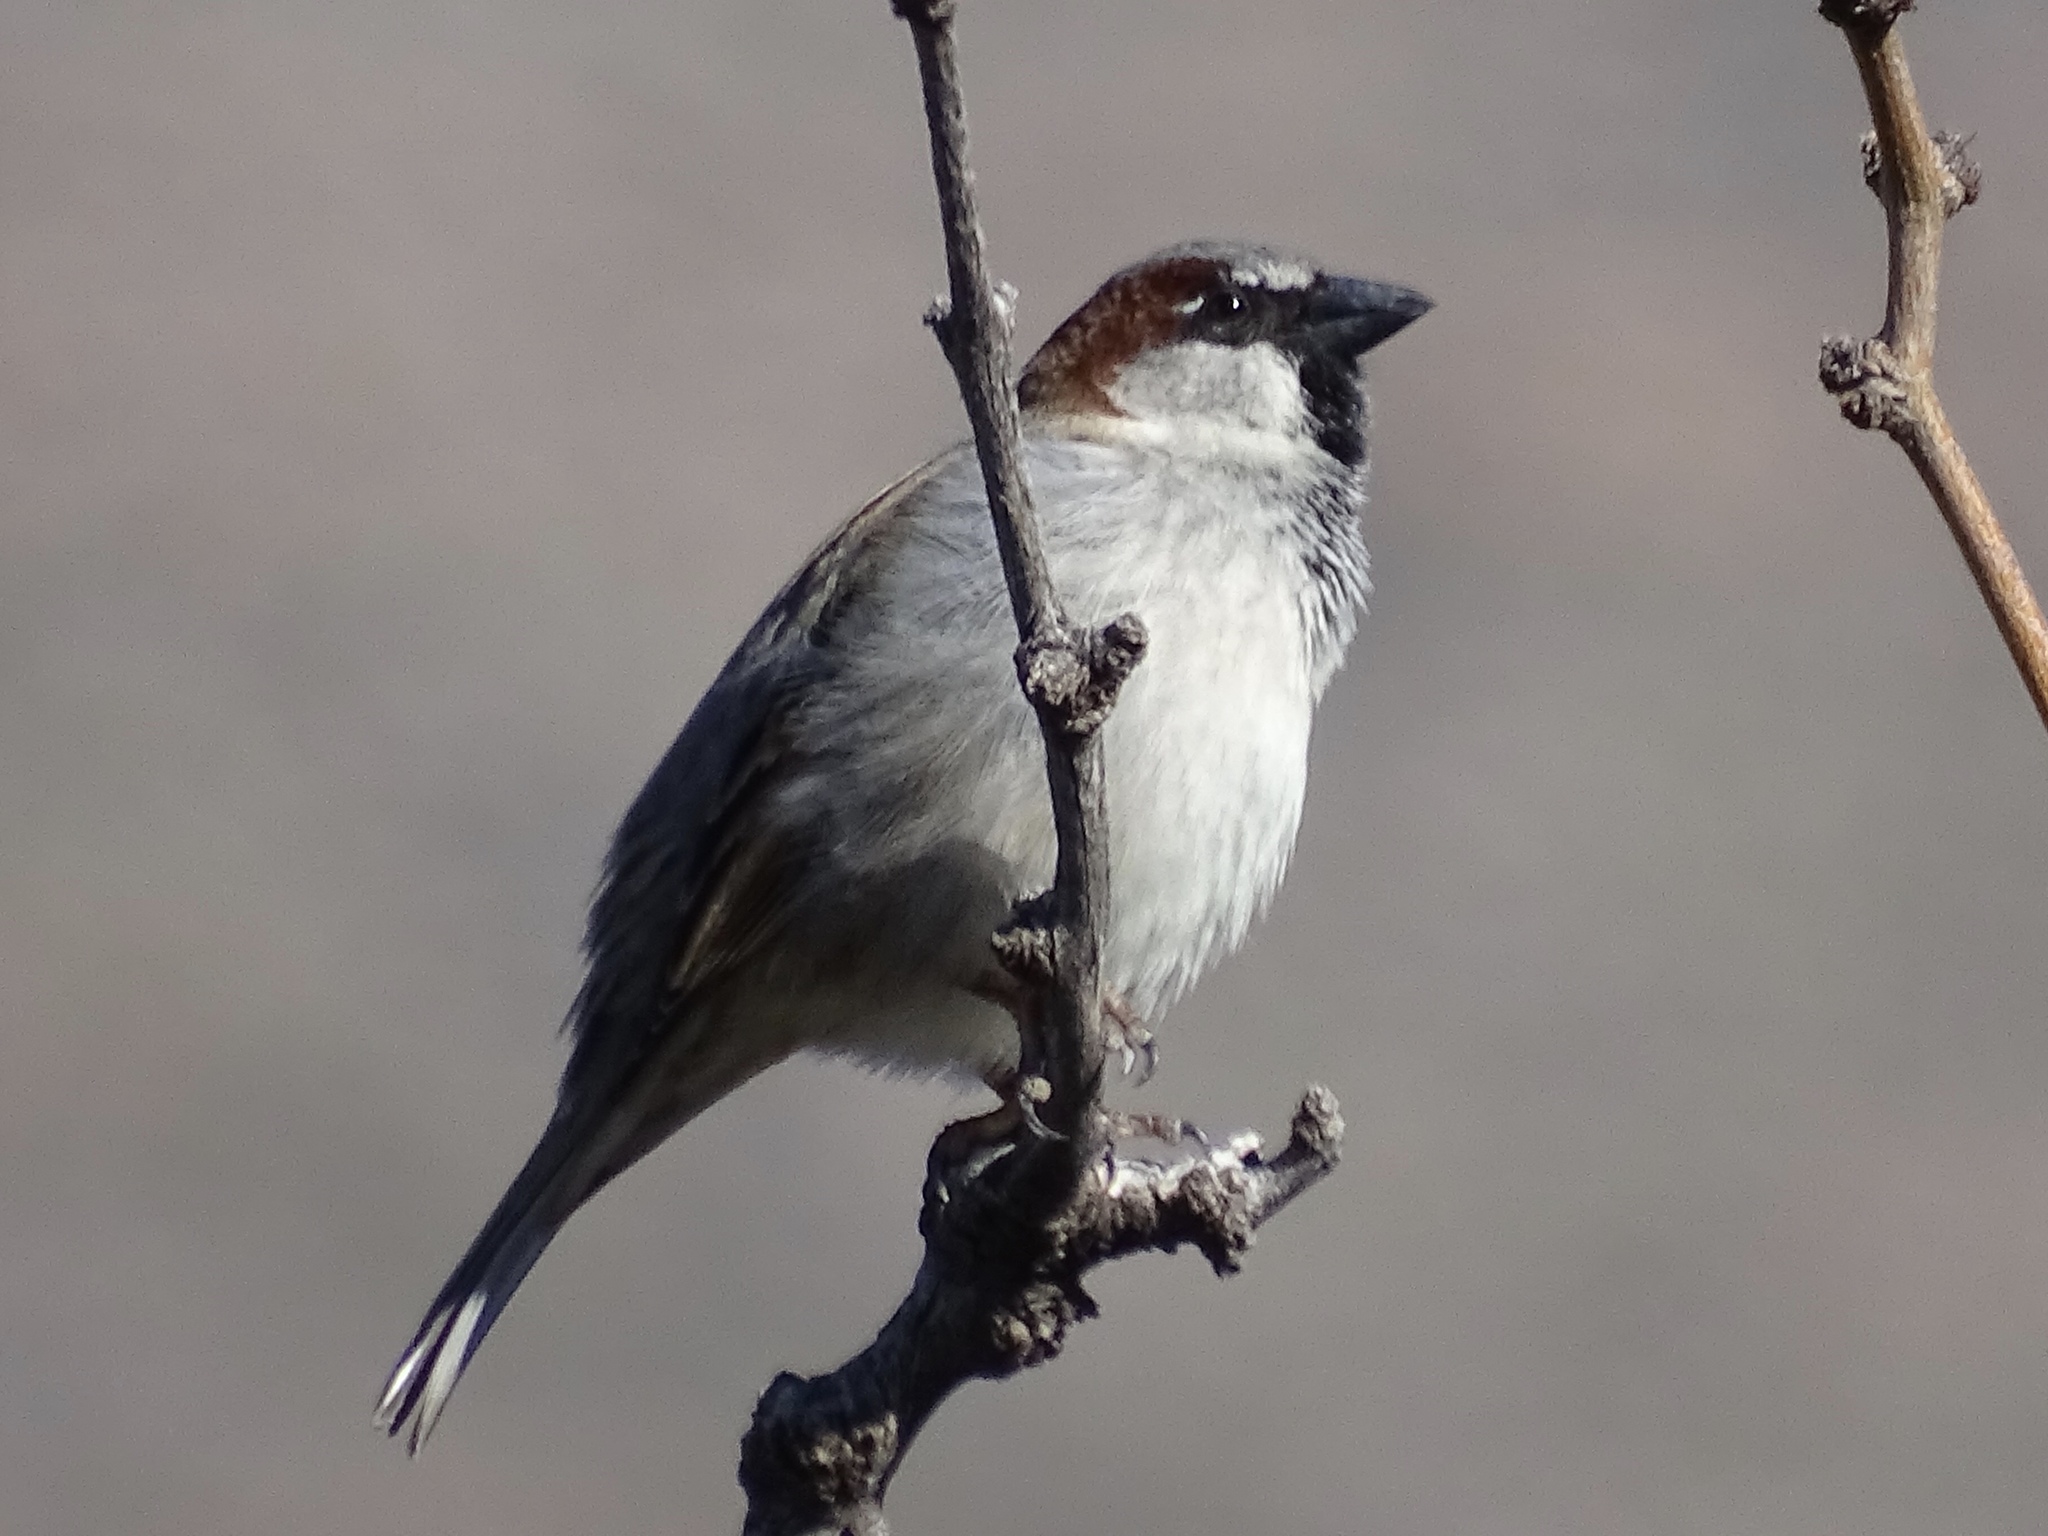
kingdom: Animalia
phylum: Chordata
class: Aves
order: Passeriformes
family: Passeridae
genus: Passer
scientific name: Passer domesticus
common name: House sparrow
